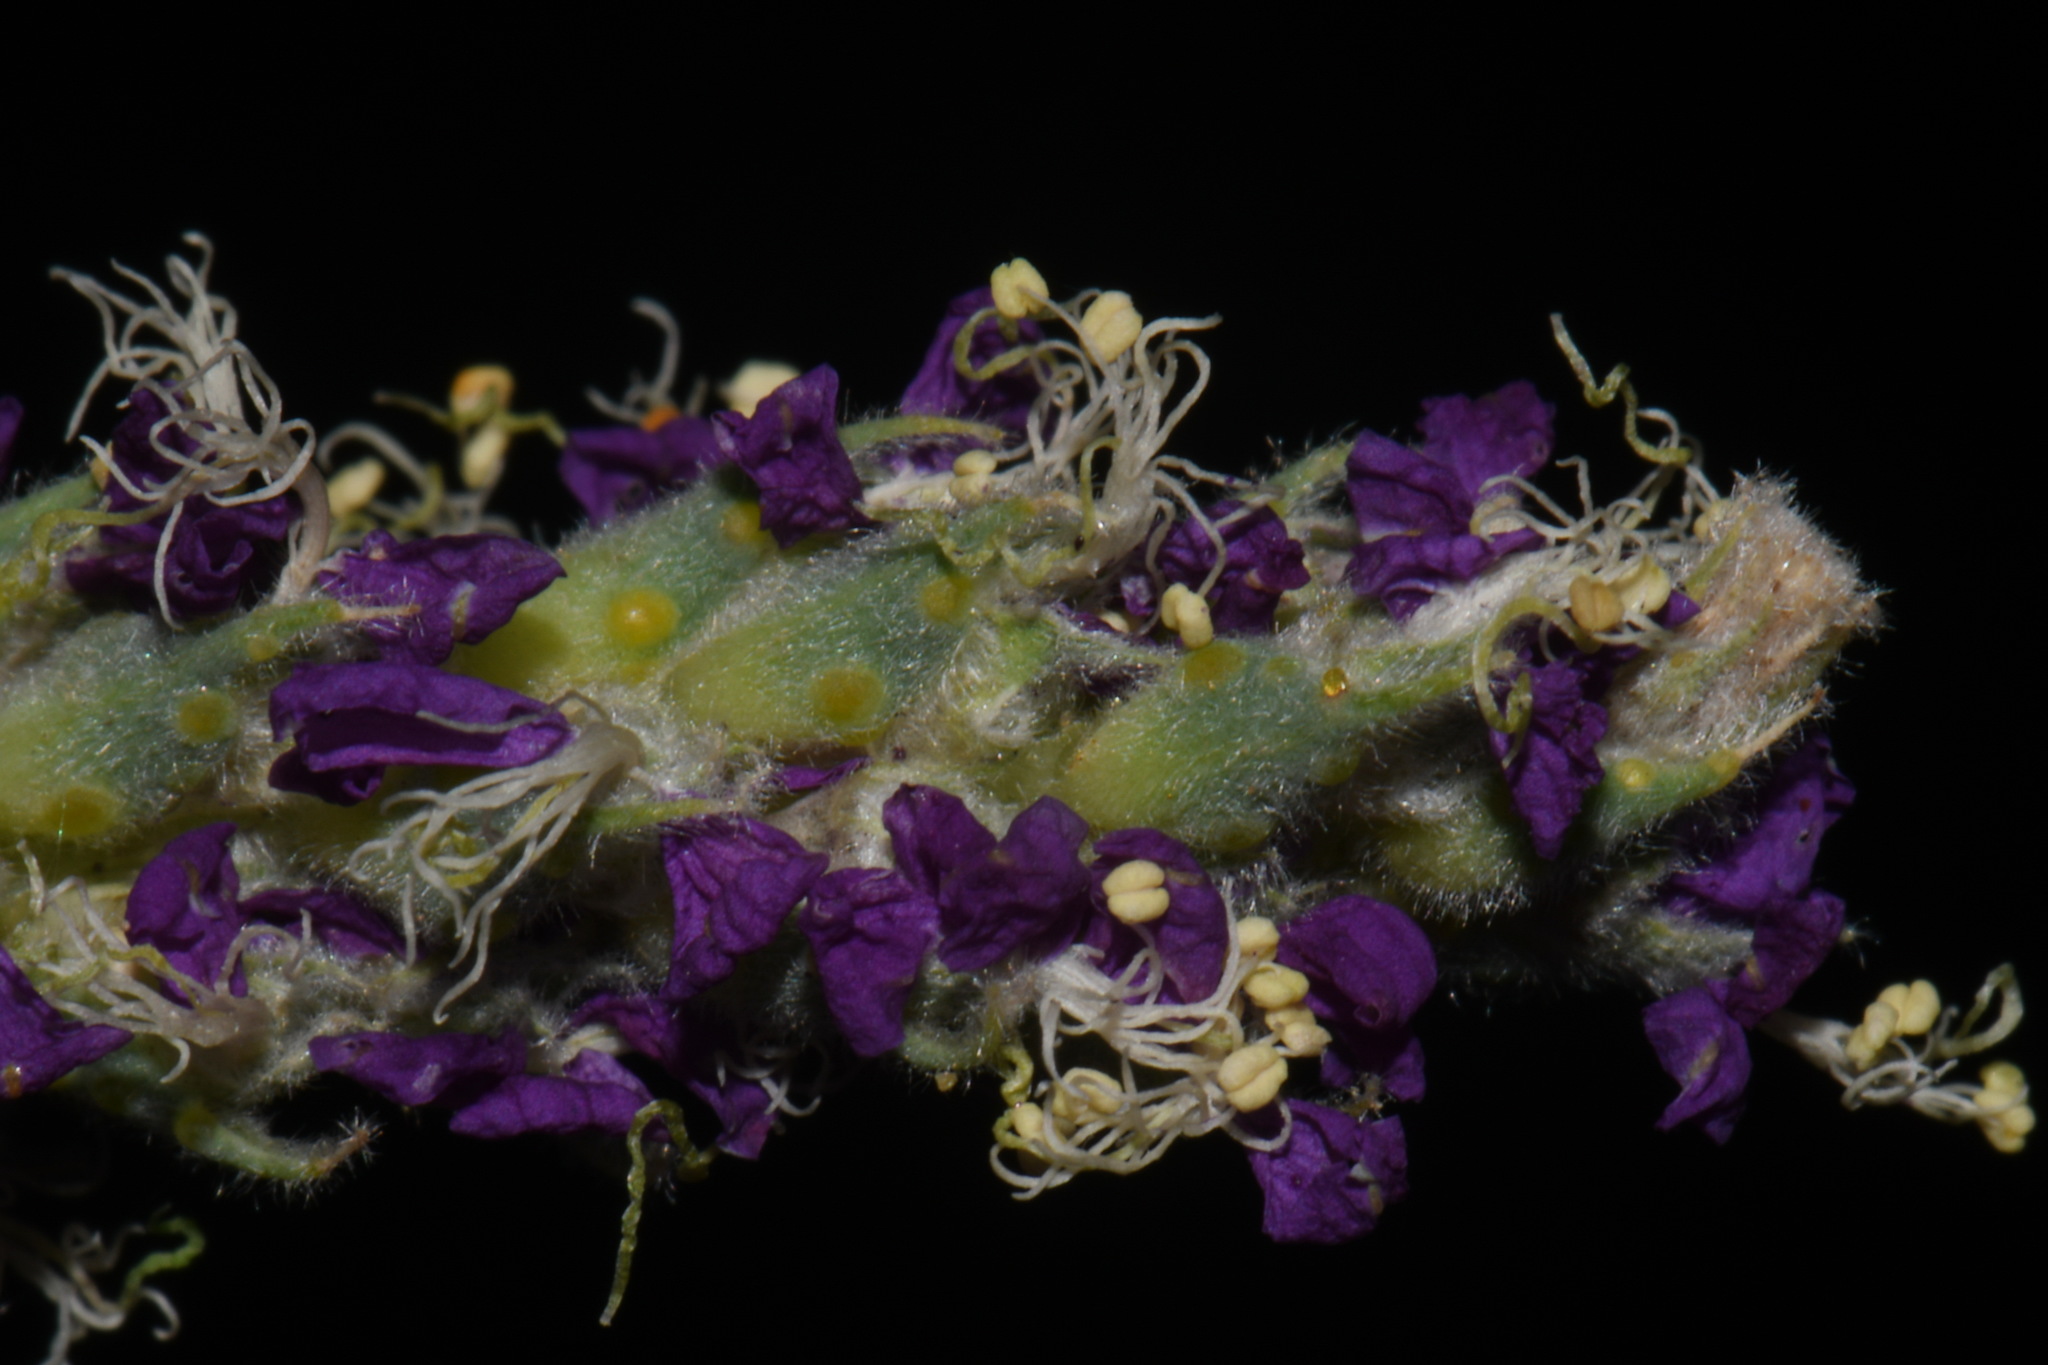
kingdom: Plantae
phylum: Tracheophyta
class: Magnoliopsida
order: Fabales
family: Fabaceae
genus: Dalea
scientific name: Dalea lanata
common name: Woolly dalea
